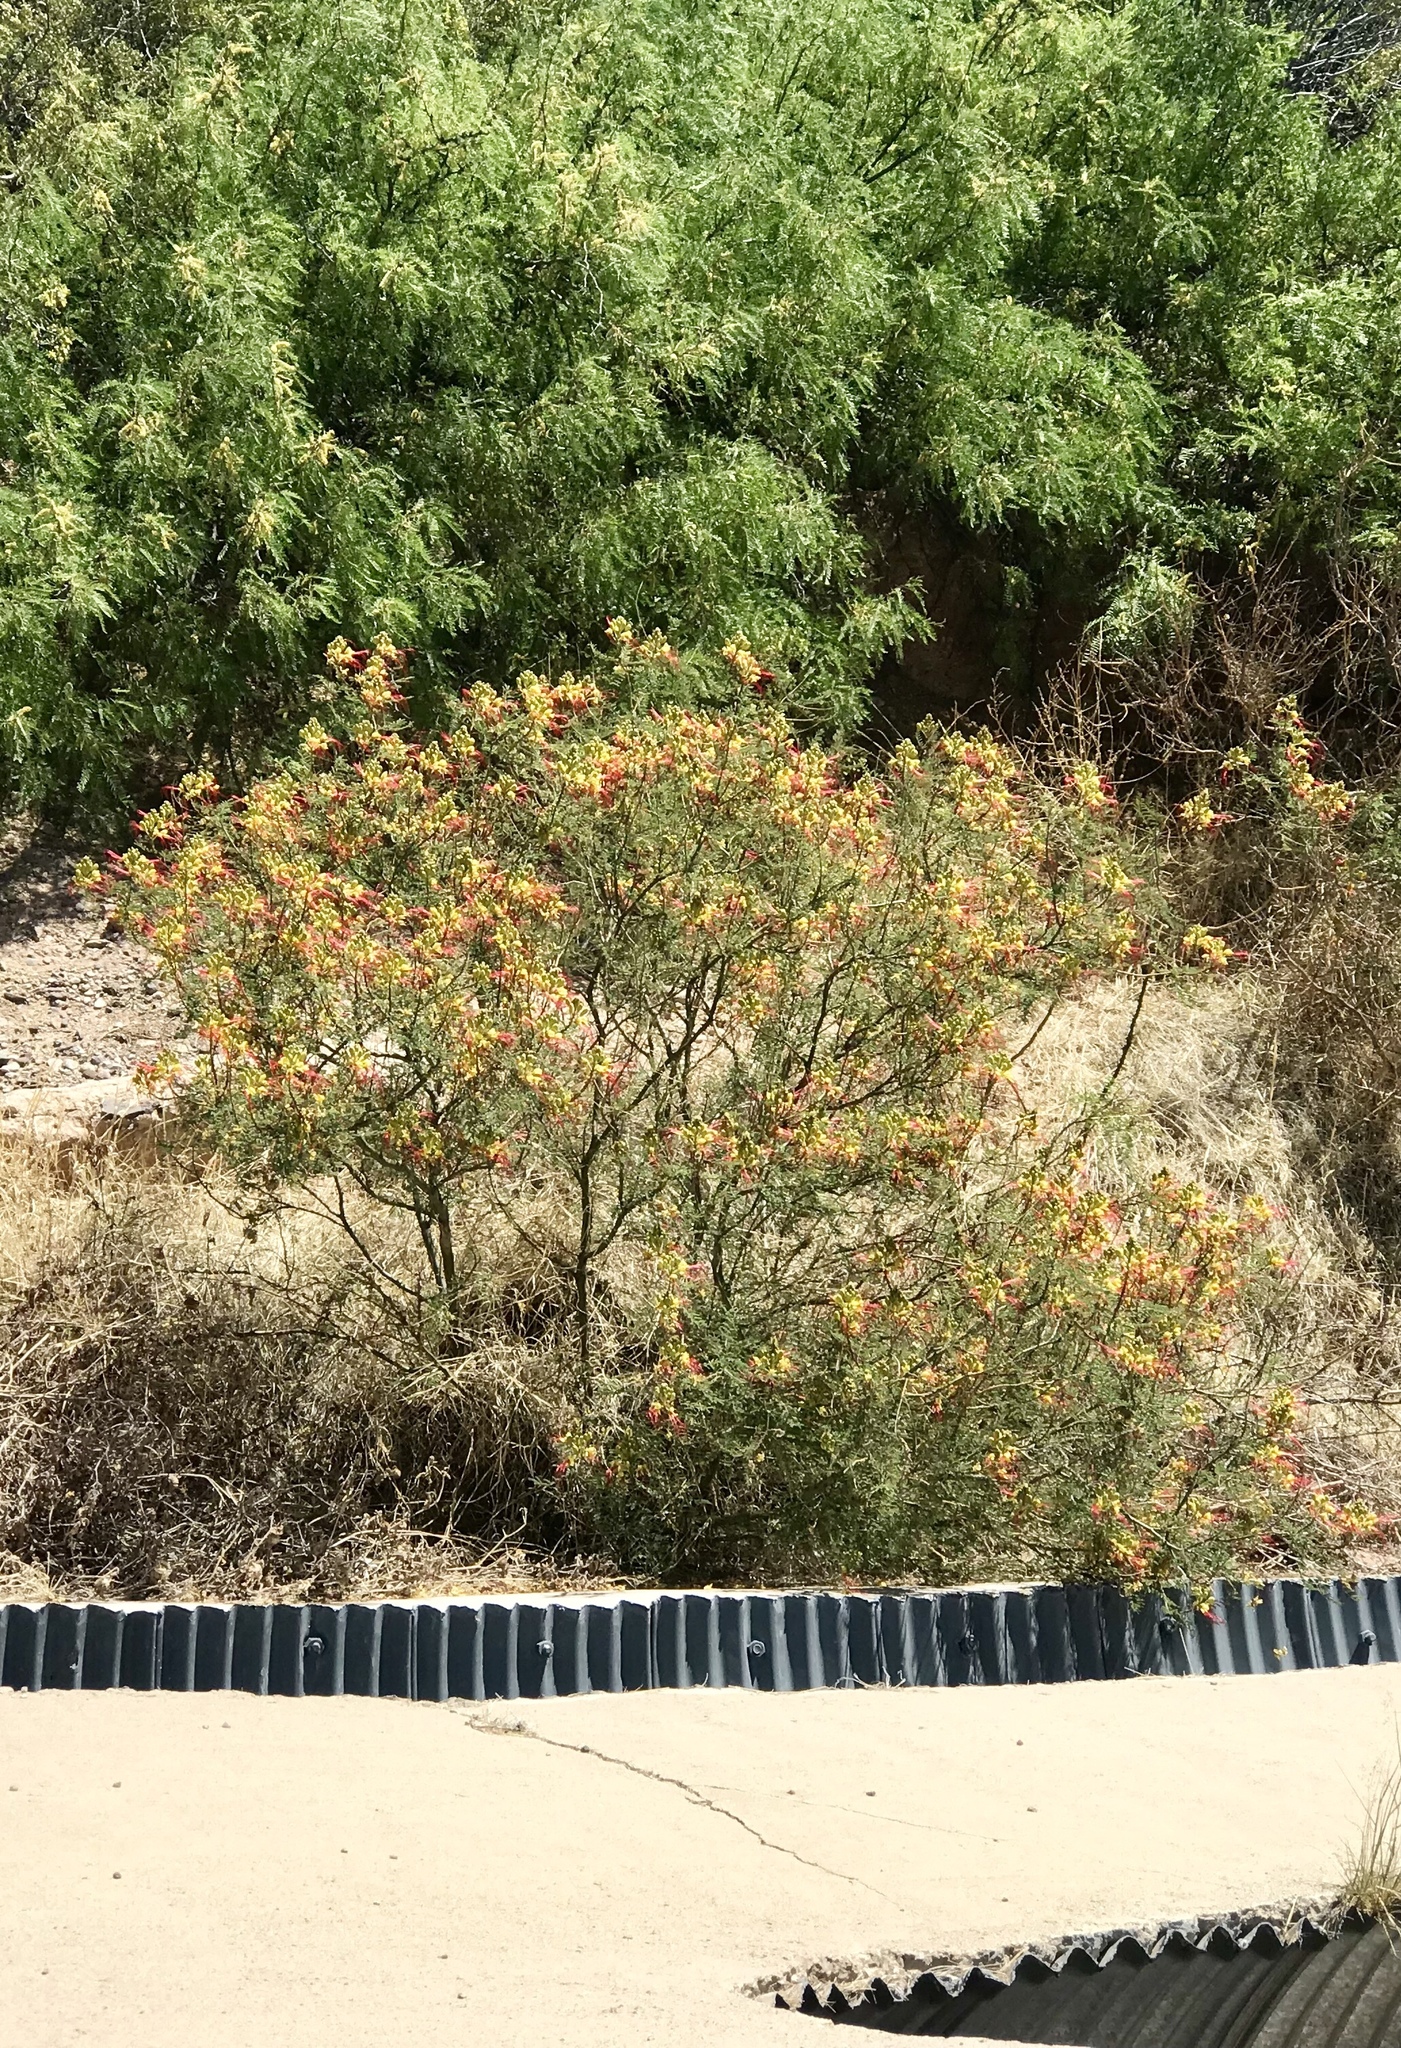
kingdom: Plantae
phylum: Tracheophyta
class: Magnoliopsida
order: Fabales
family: Fabaceae
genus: Erythrostemon
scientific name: Erythrostemon gilliesii
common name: Bird-of-paradise shrub
